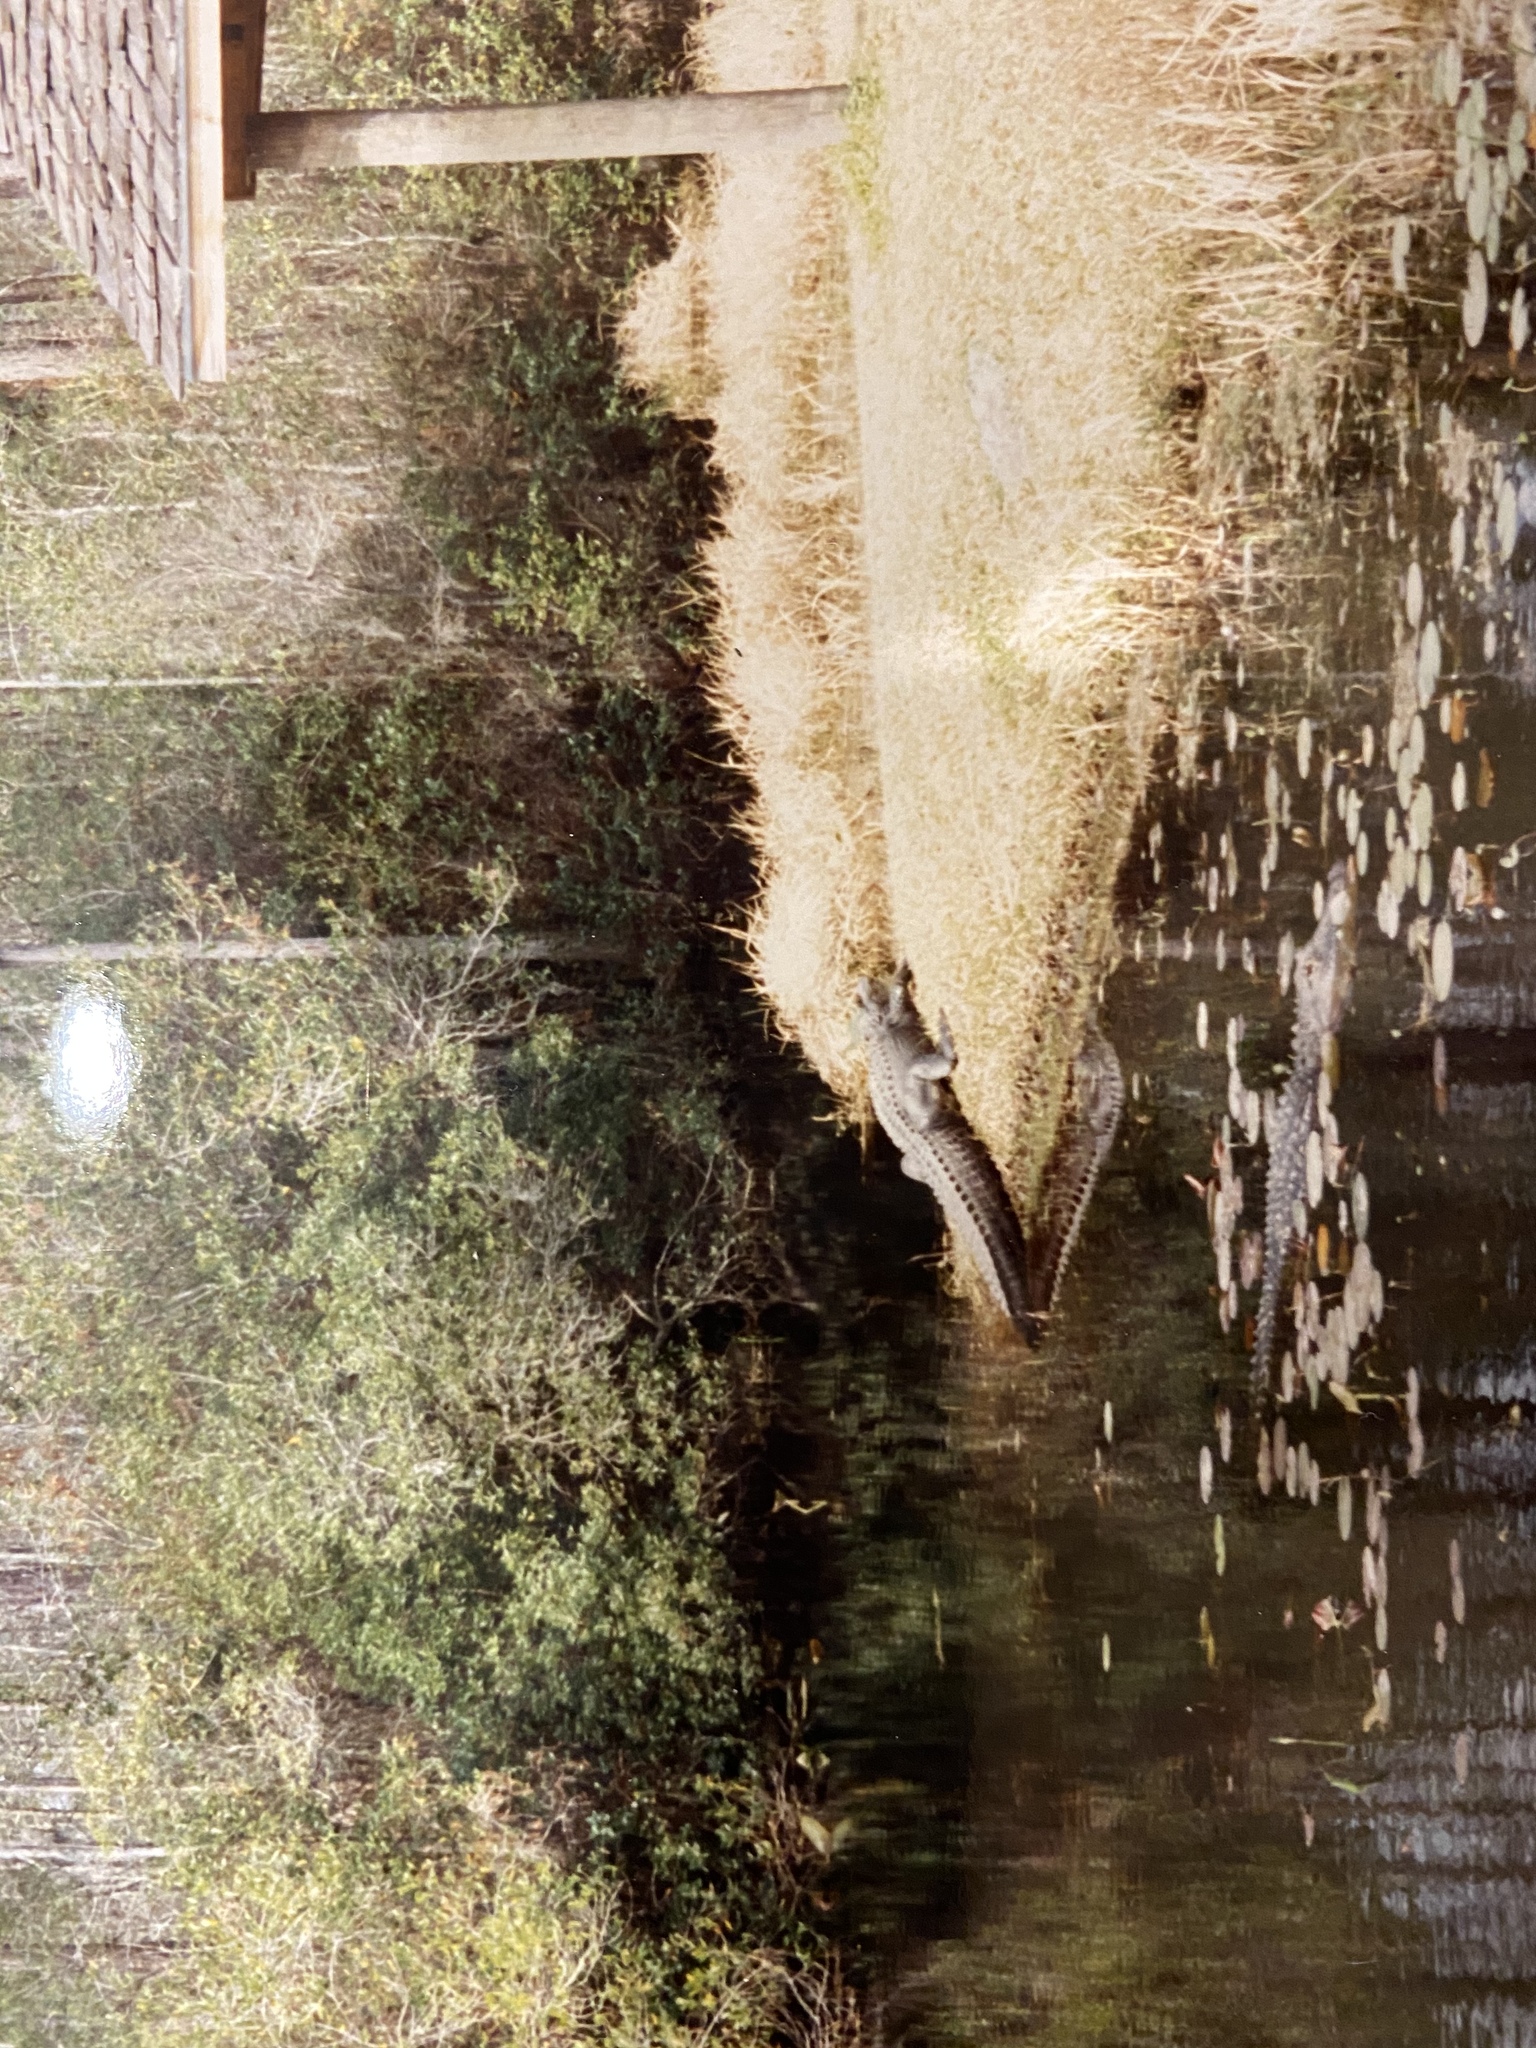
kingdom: Animalia
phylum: Chordata
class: Crocodylia
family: Alligatoridae
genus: Alligator
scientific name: Alligator mississippiensis
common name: American alligator
